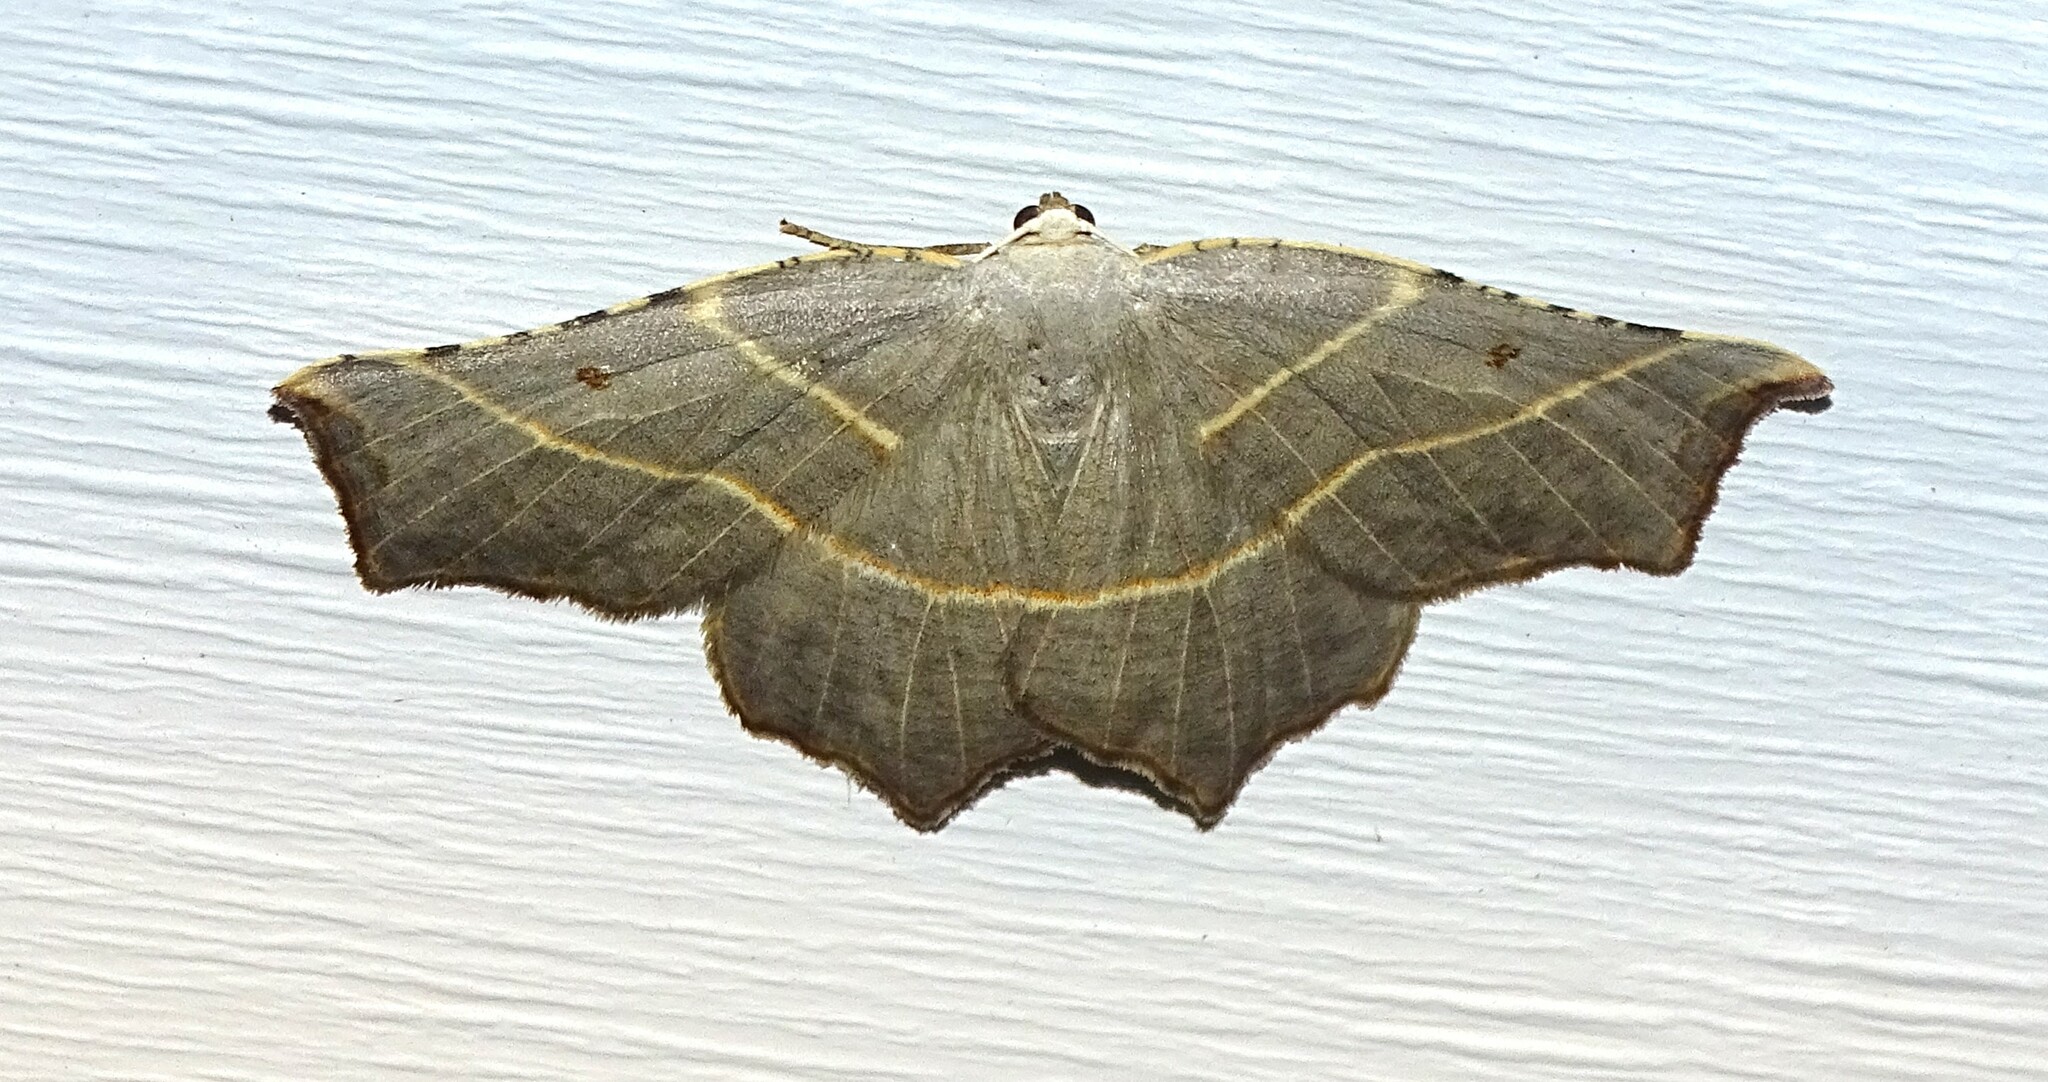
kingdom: Animalia
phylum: Arthropoda
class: Insecta
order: Lepidoptera
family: Geometridae
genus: Metanema
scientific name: Metanema inatomaria
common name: Pale metanema
